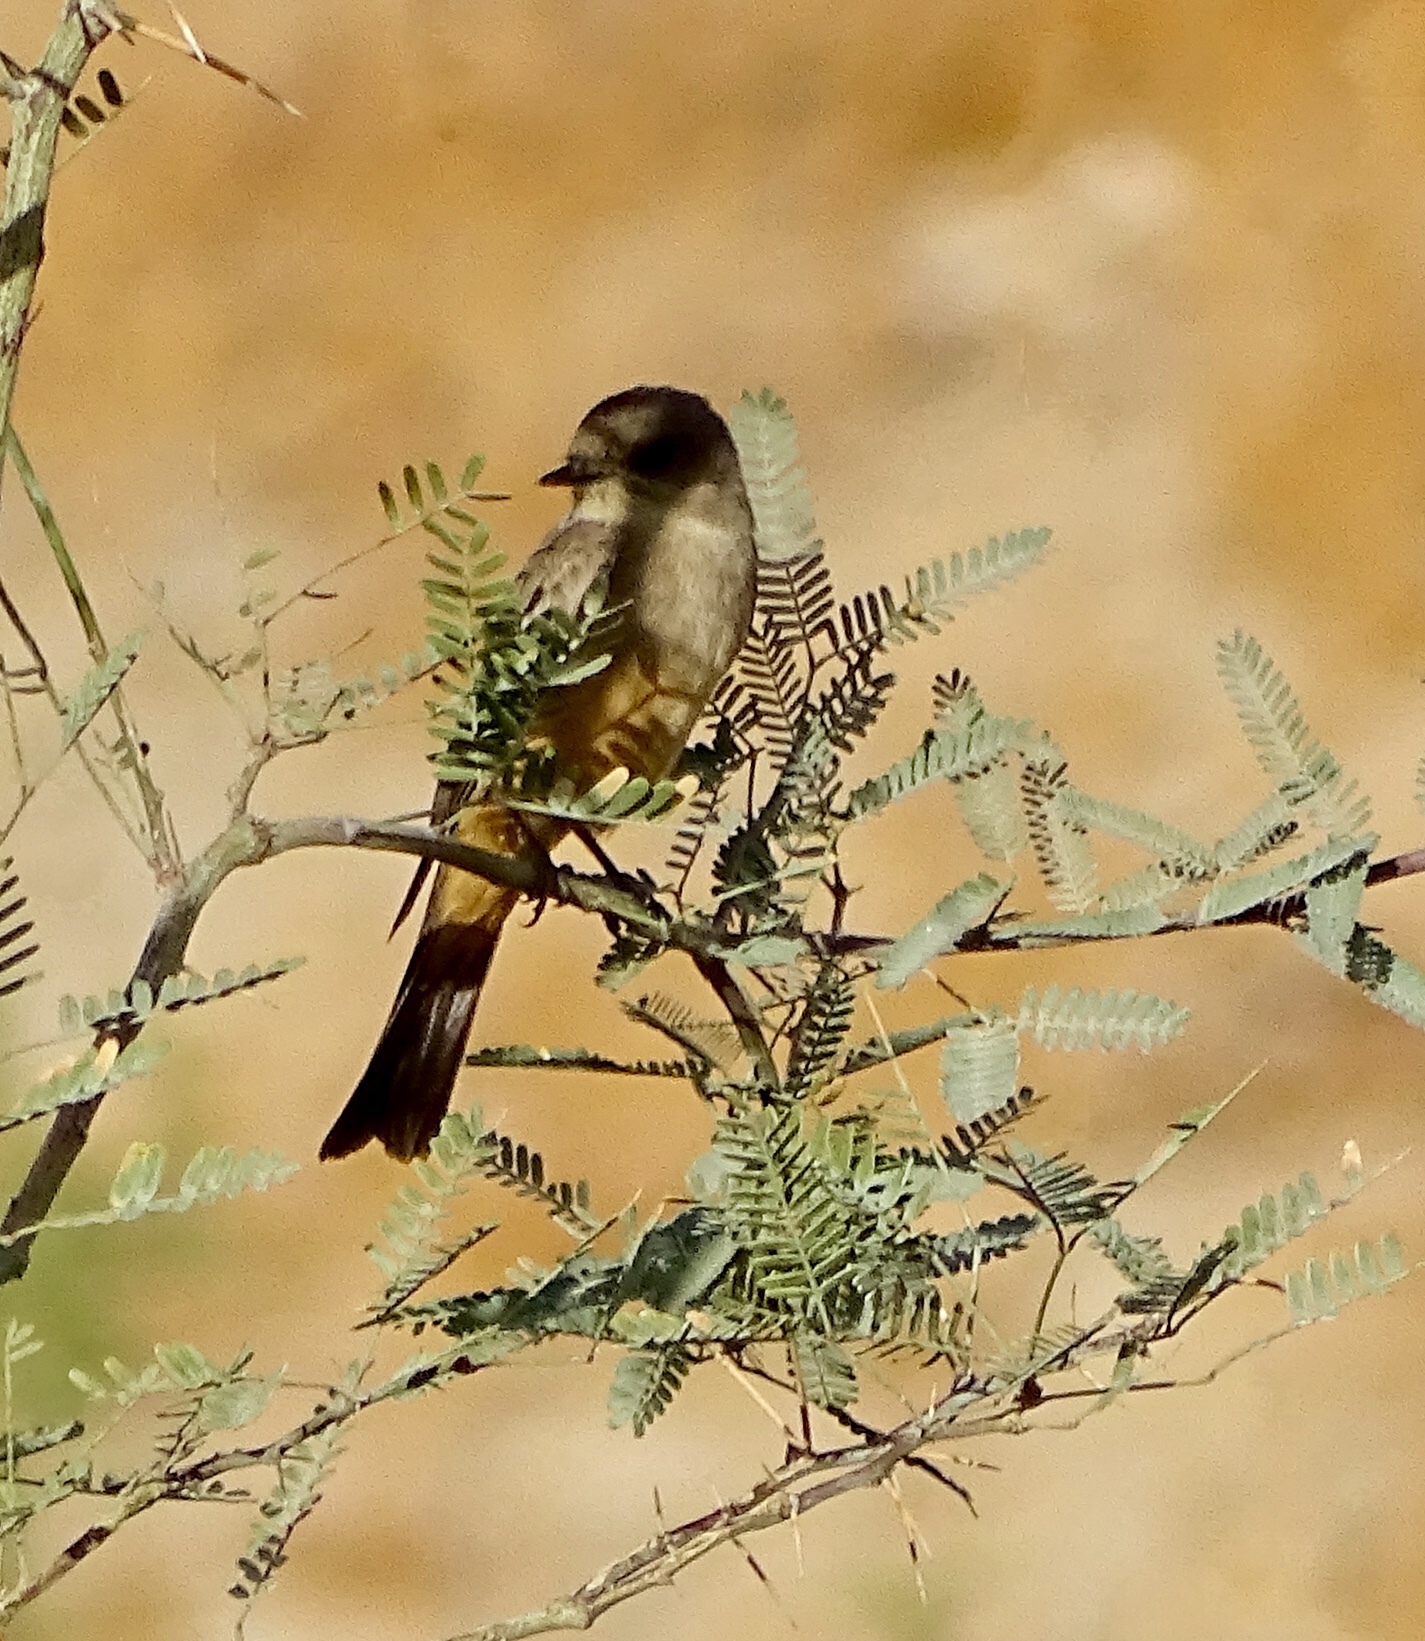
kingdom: Animalia
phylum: Chordata
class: Aves
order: Passeriformes
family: Tyrannidae
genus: Sayornis
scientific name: Sayornis saya
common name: Say's phoebe
